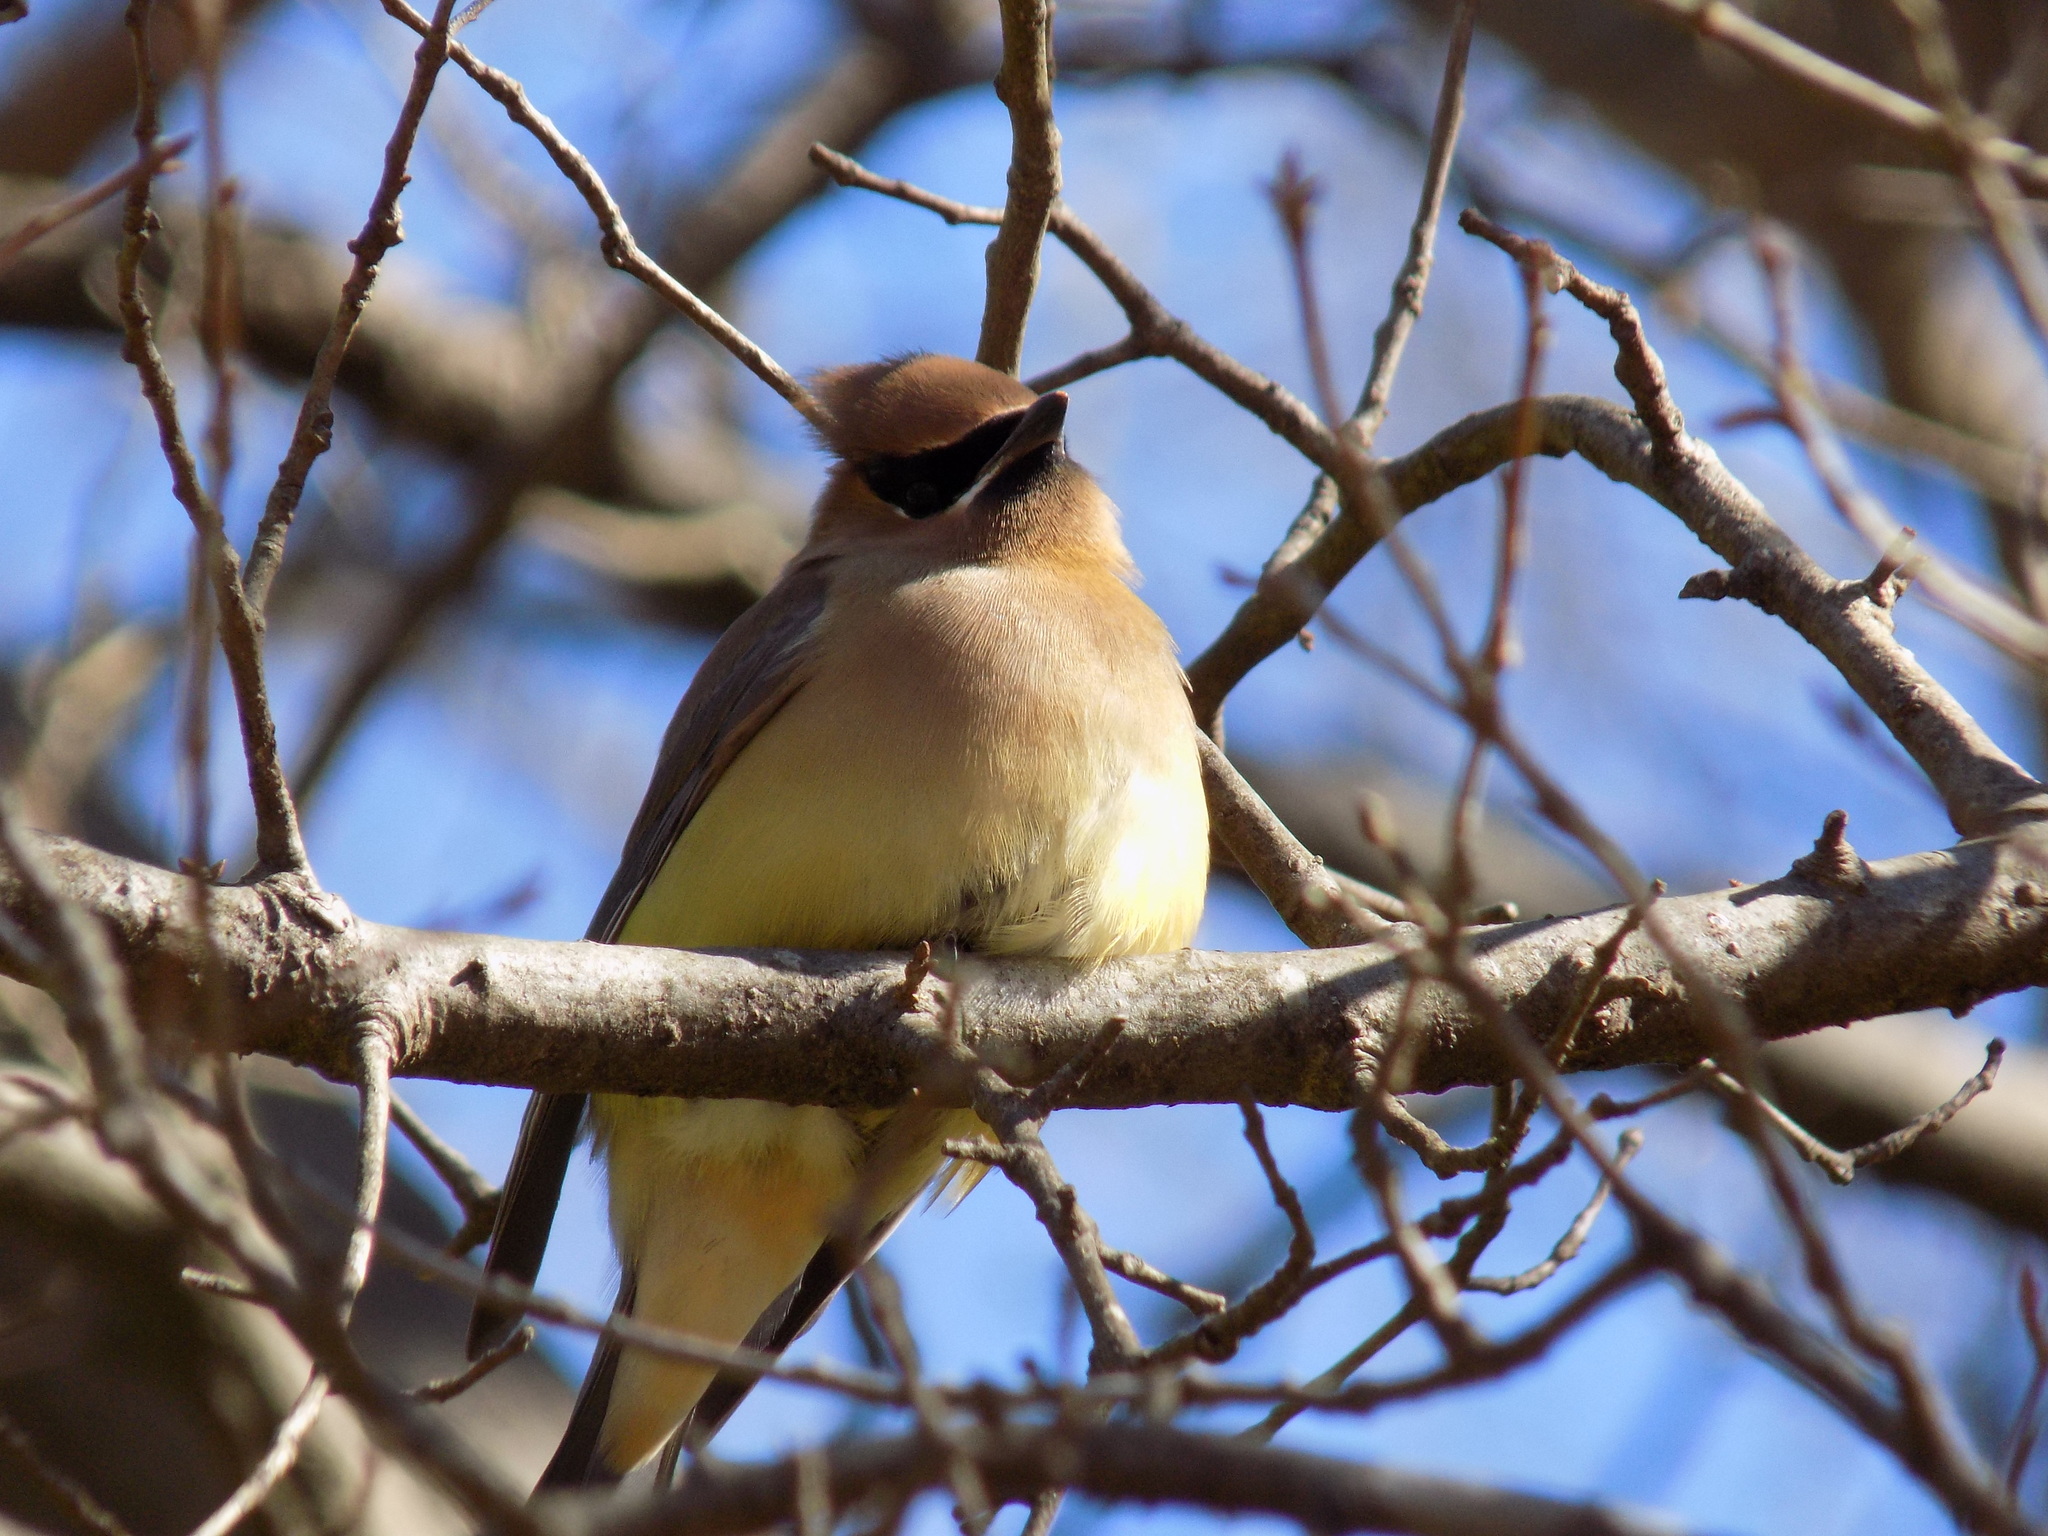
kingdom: Animalia
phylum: Chordata
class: Aves
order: Passeriformes
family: Bombycillidae
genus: Bombycilla
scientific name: Bombycilla cedrorum
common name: Cedar waxwing
